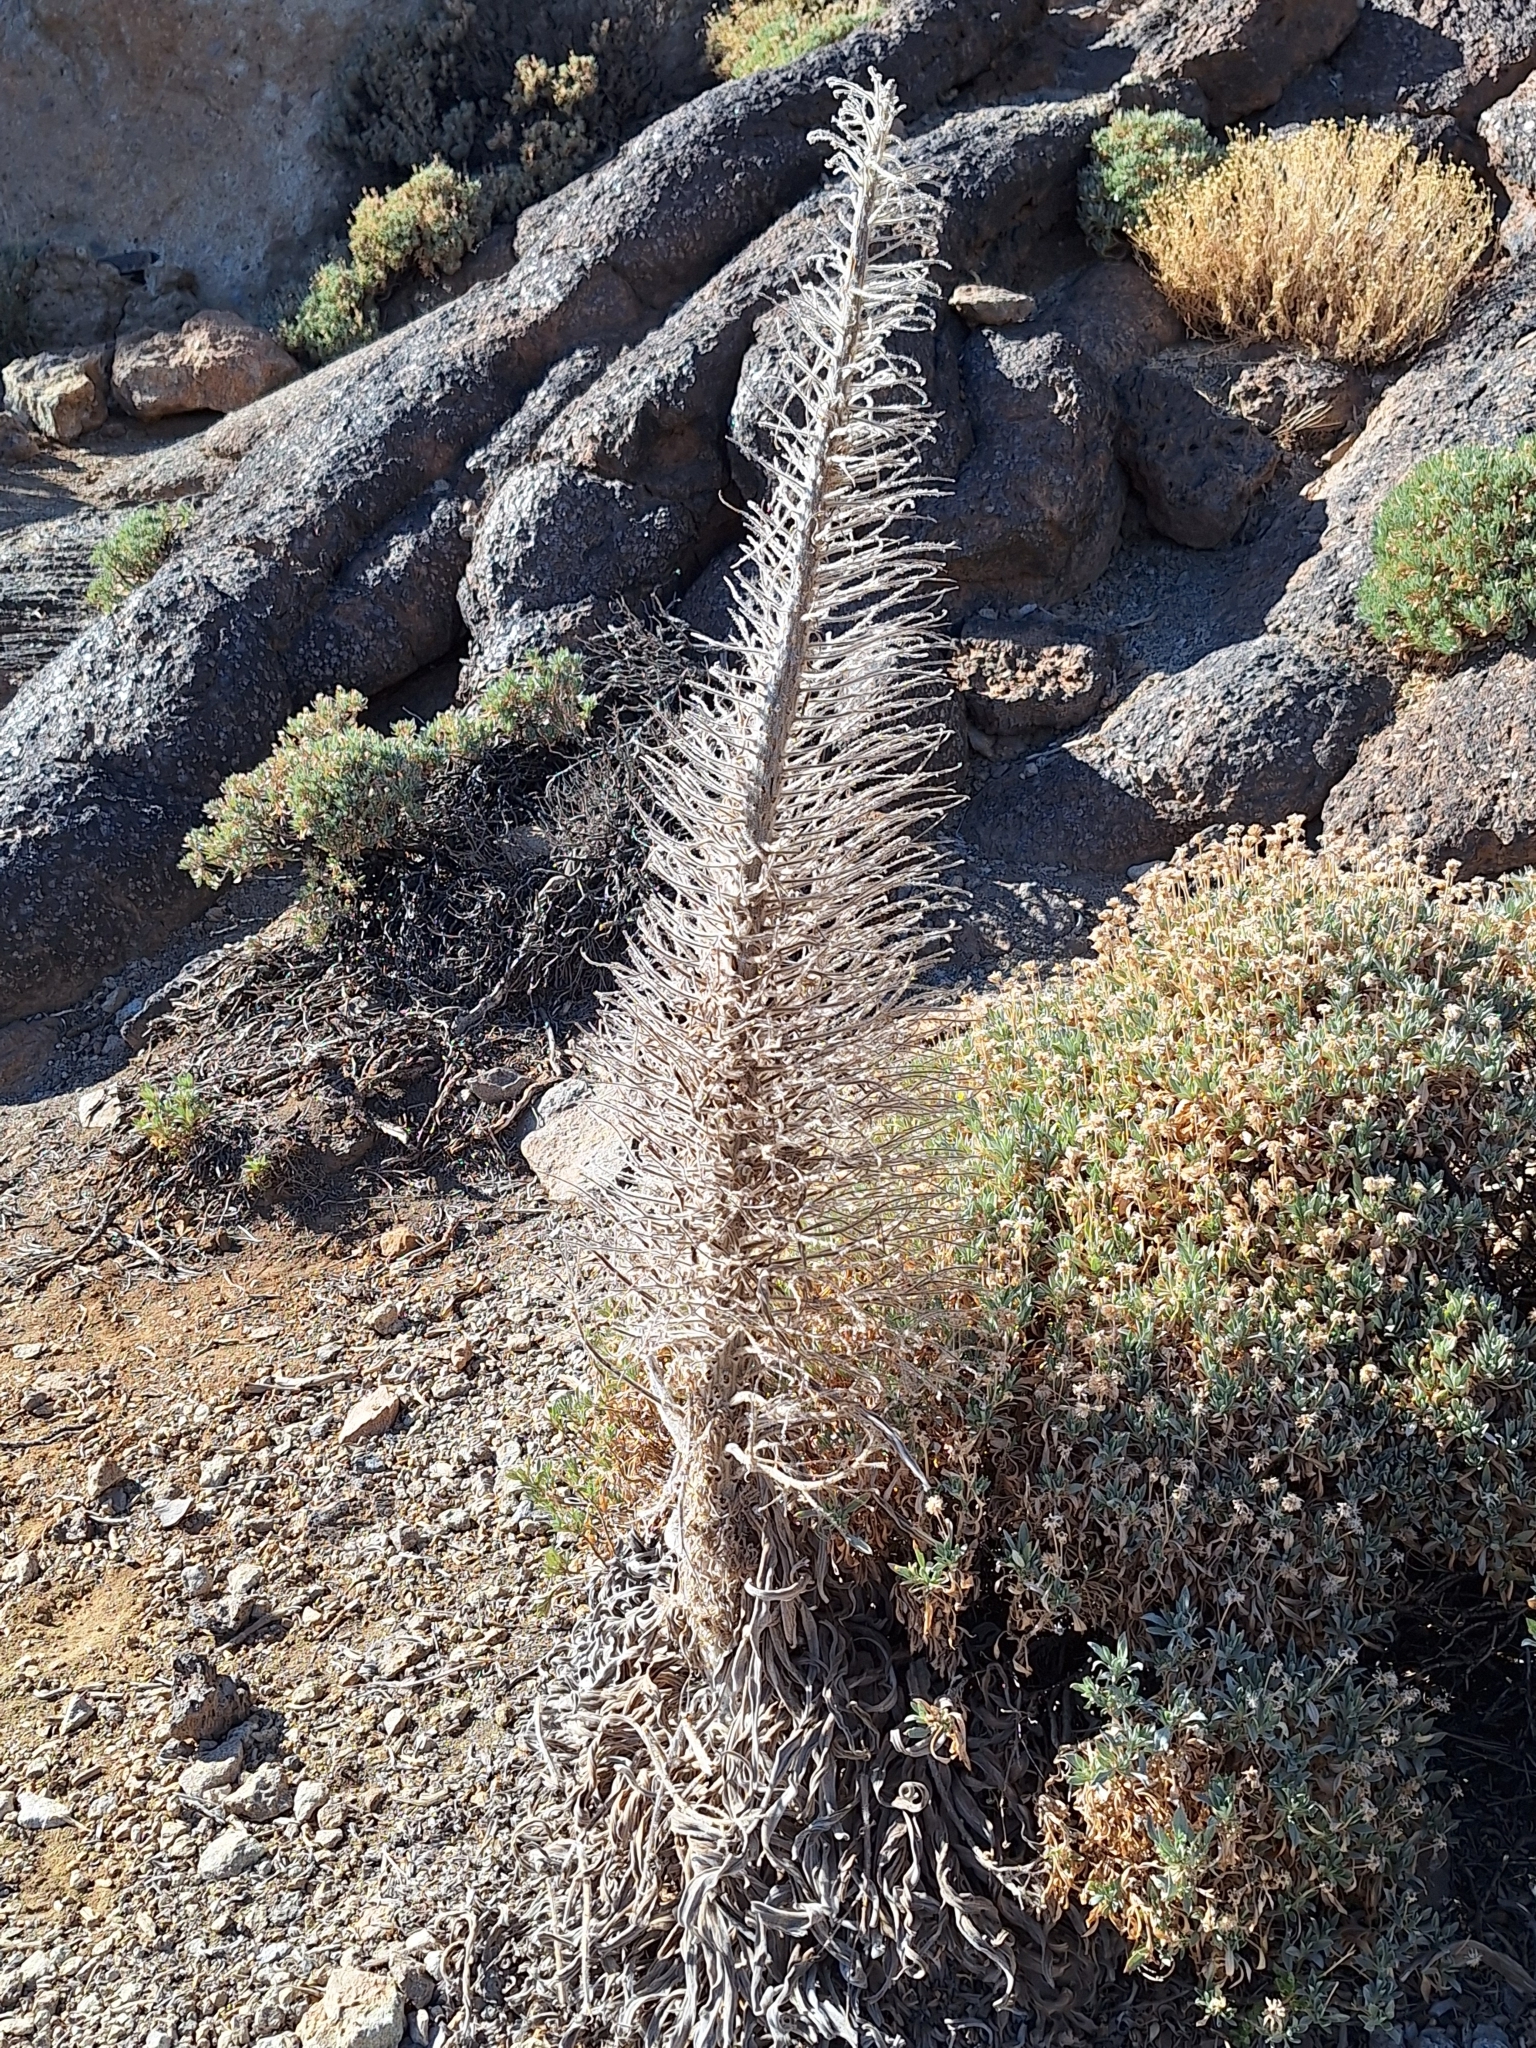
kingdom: Plantae
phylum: Tracheophyta
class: Magnoliopsida
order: Boraginales
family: Boraginaceae
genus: Echium
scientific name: Echium wildpretii
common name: Tower-of-jewels
